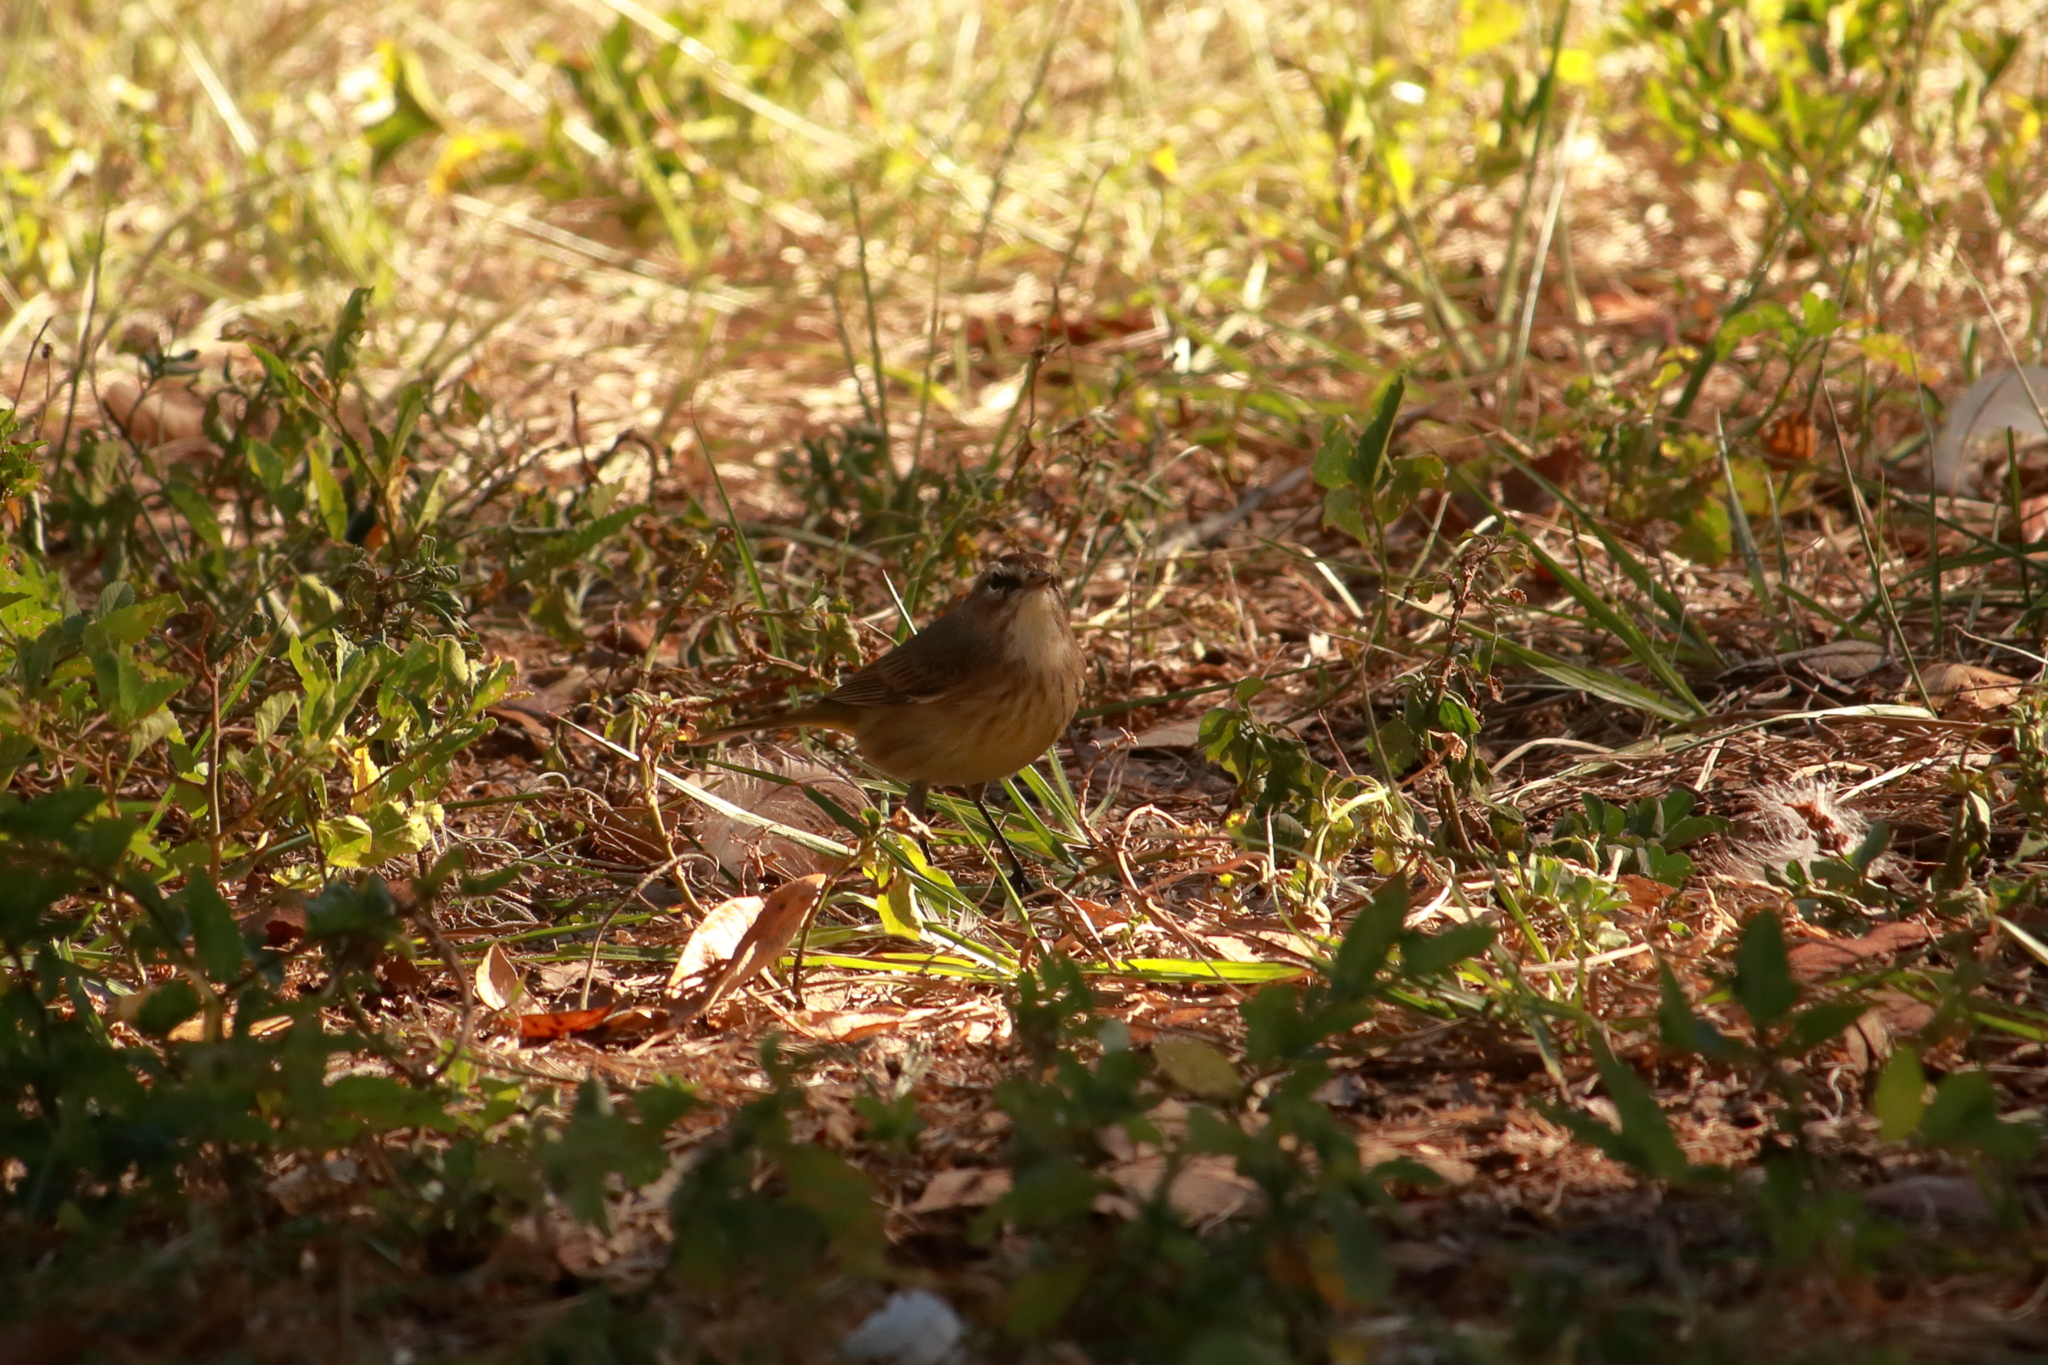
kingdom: Animalia
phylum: Chordata
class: Aves
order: Passeriformes
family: Parulidae
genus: Setophaga
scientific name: Setophaga palmarum
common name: Palm warbler
